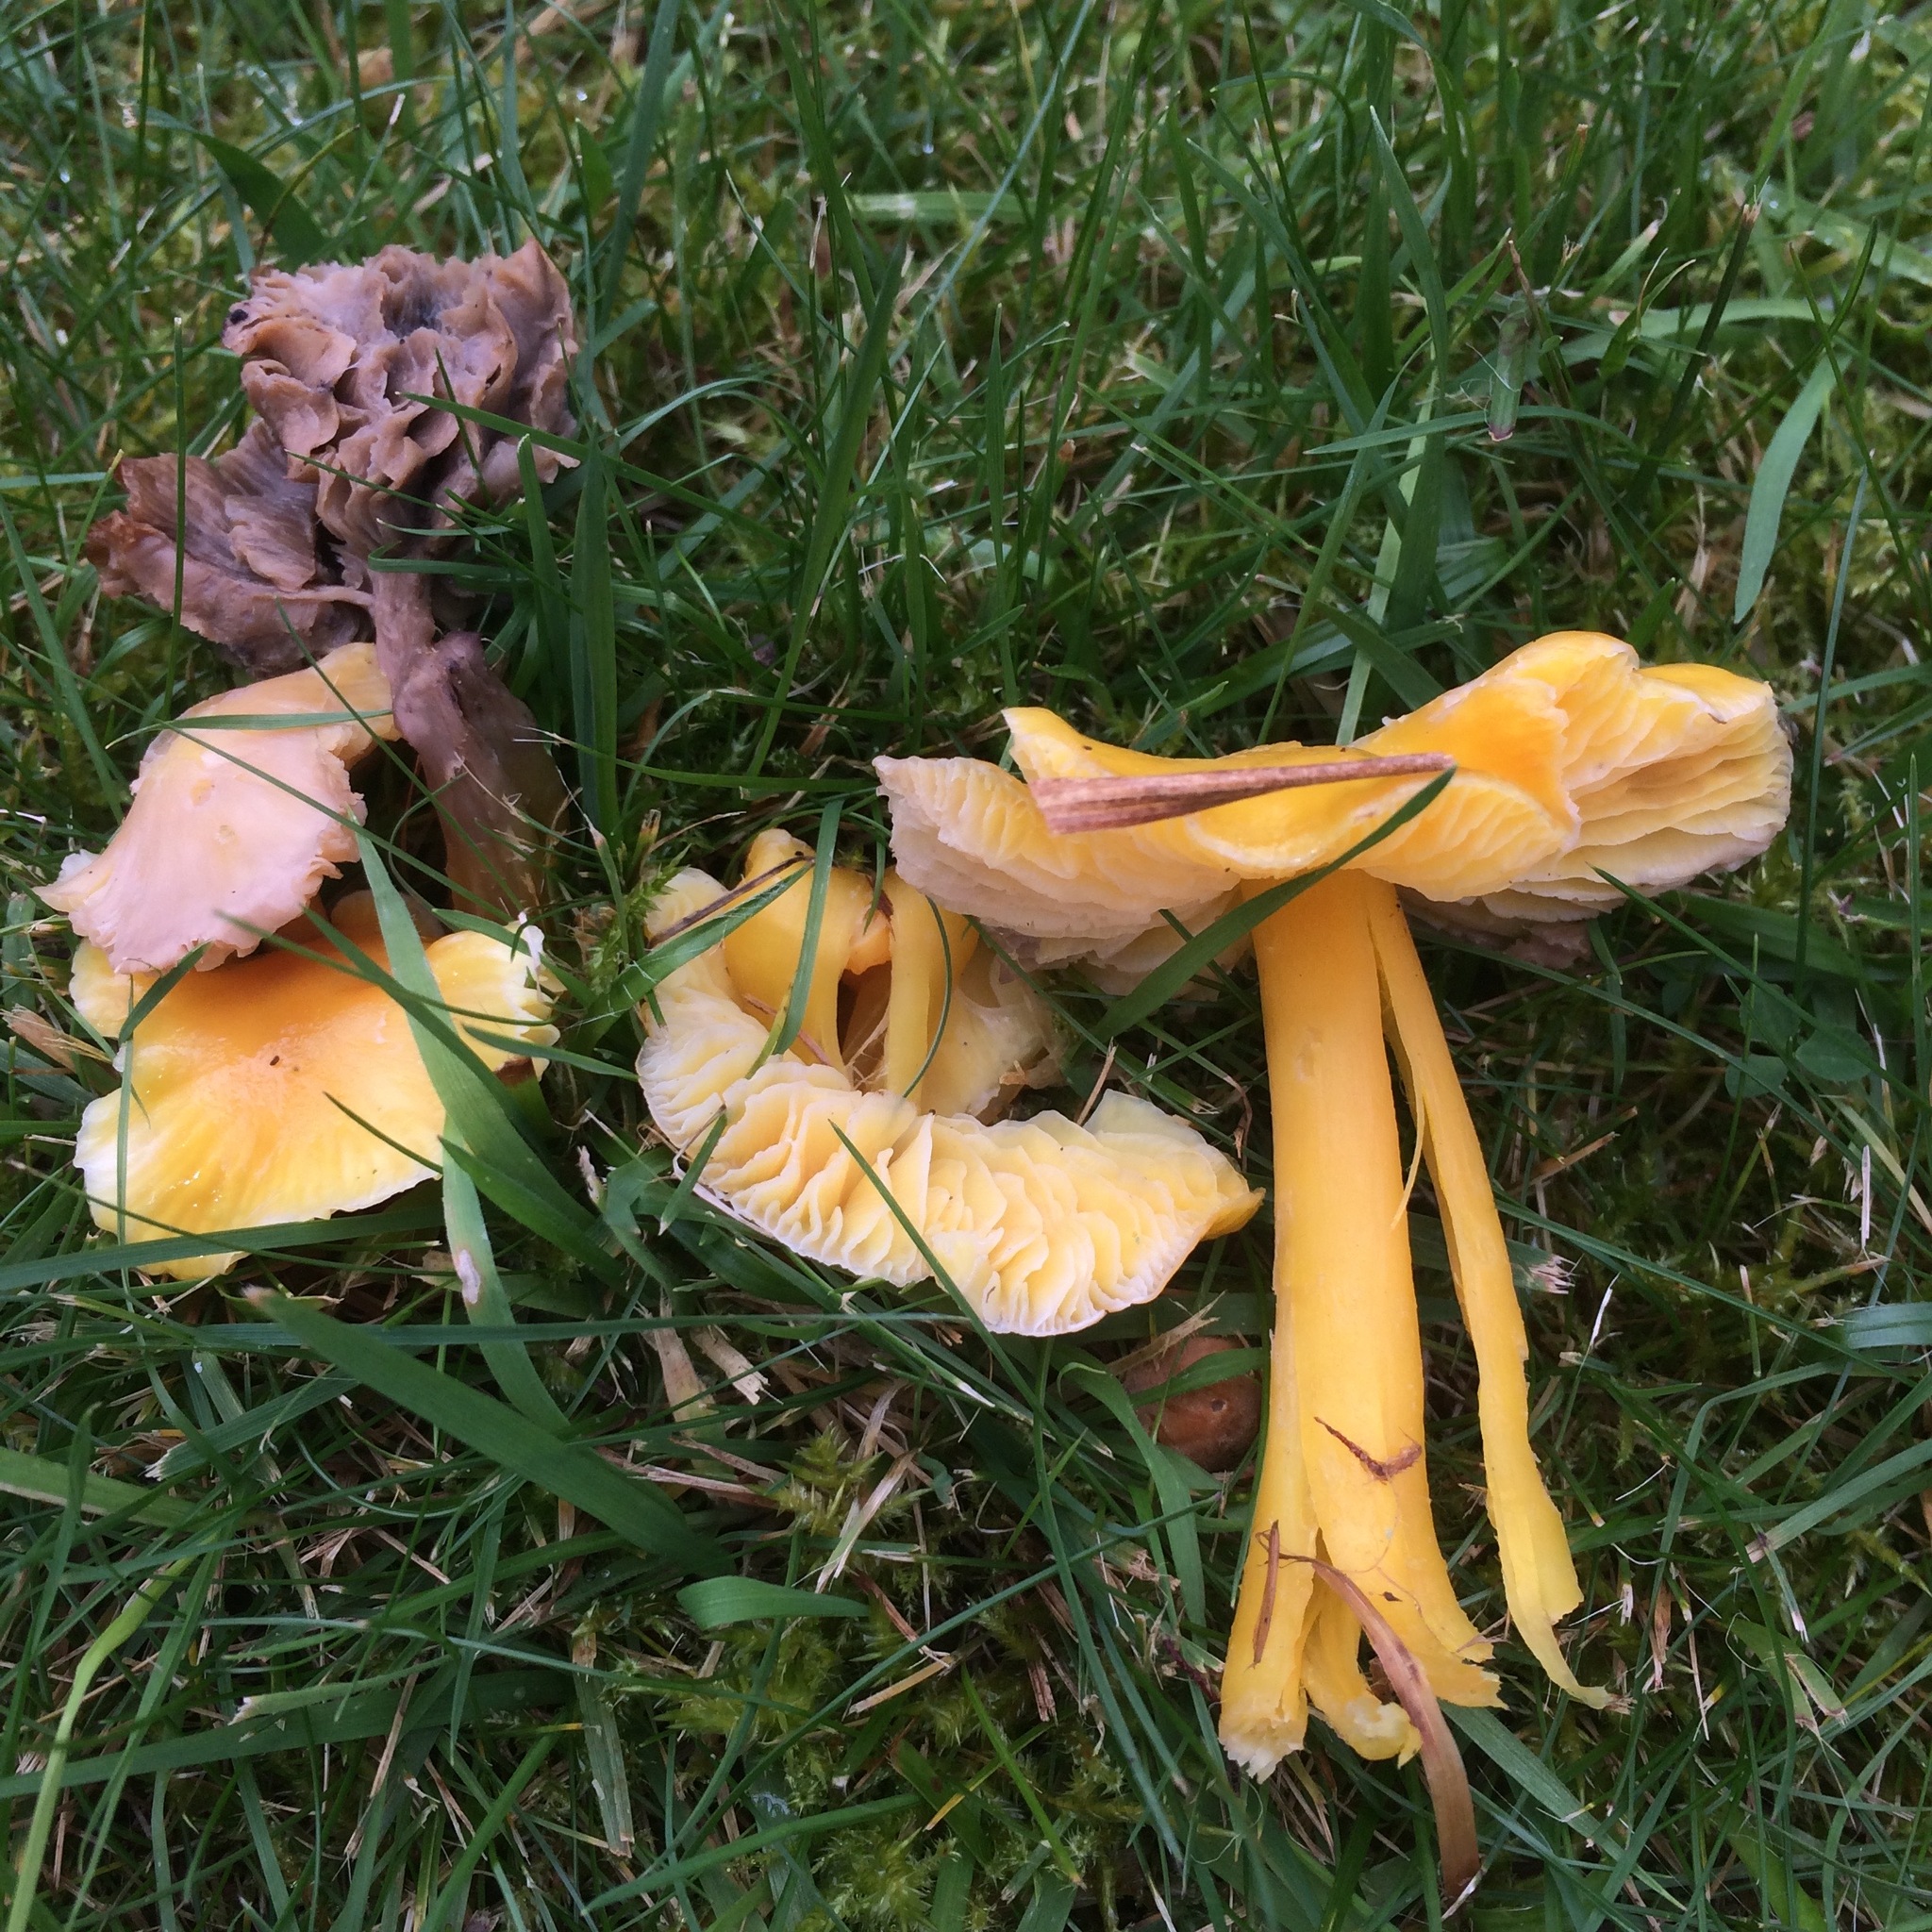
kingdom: Fungi
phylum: Basidiomycota
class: Agaricomycetes
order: Agaricales
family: Hygrophoraceae
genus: Hygrocybe
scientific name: Hygrocybe chlorophana
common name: Golden waxcap
